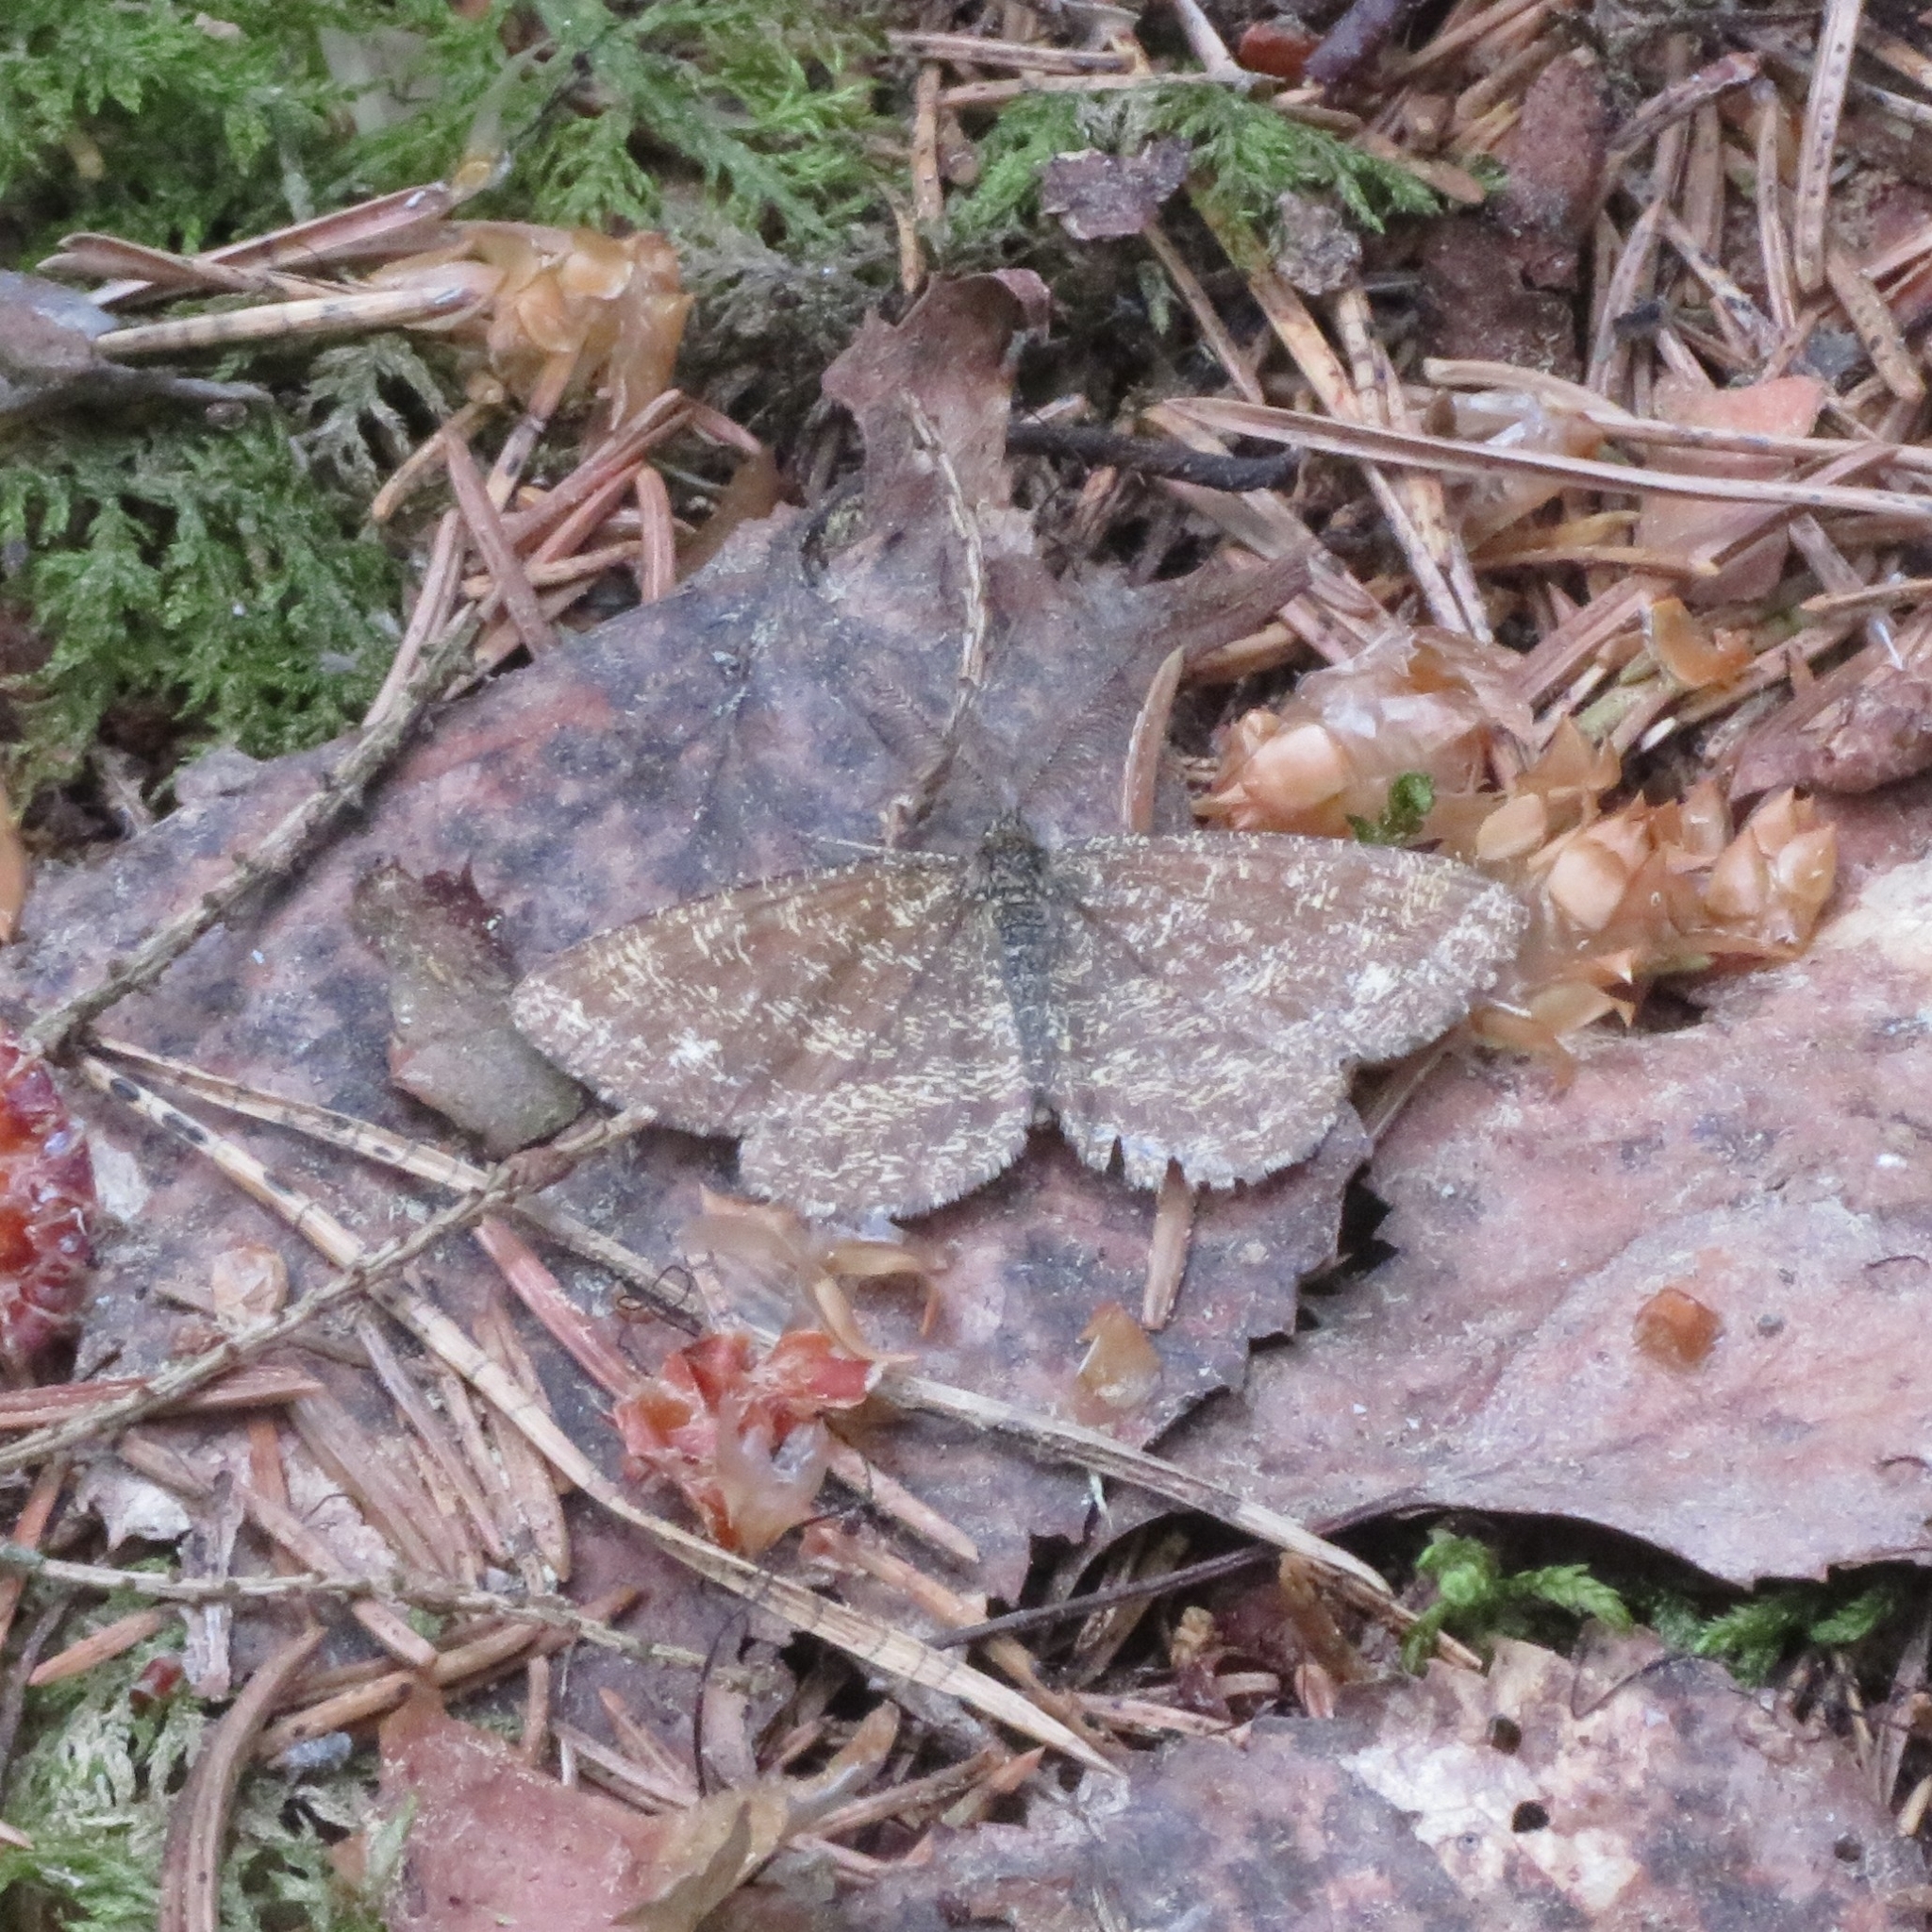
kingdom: Animalia
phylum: Arthropoda
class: Insecta
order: Lepidoptera
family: Geometridae
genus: Ematurga
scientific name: Ematurga atomaria
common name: Common heath
